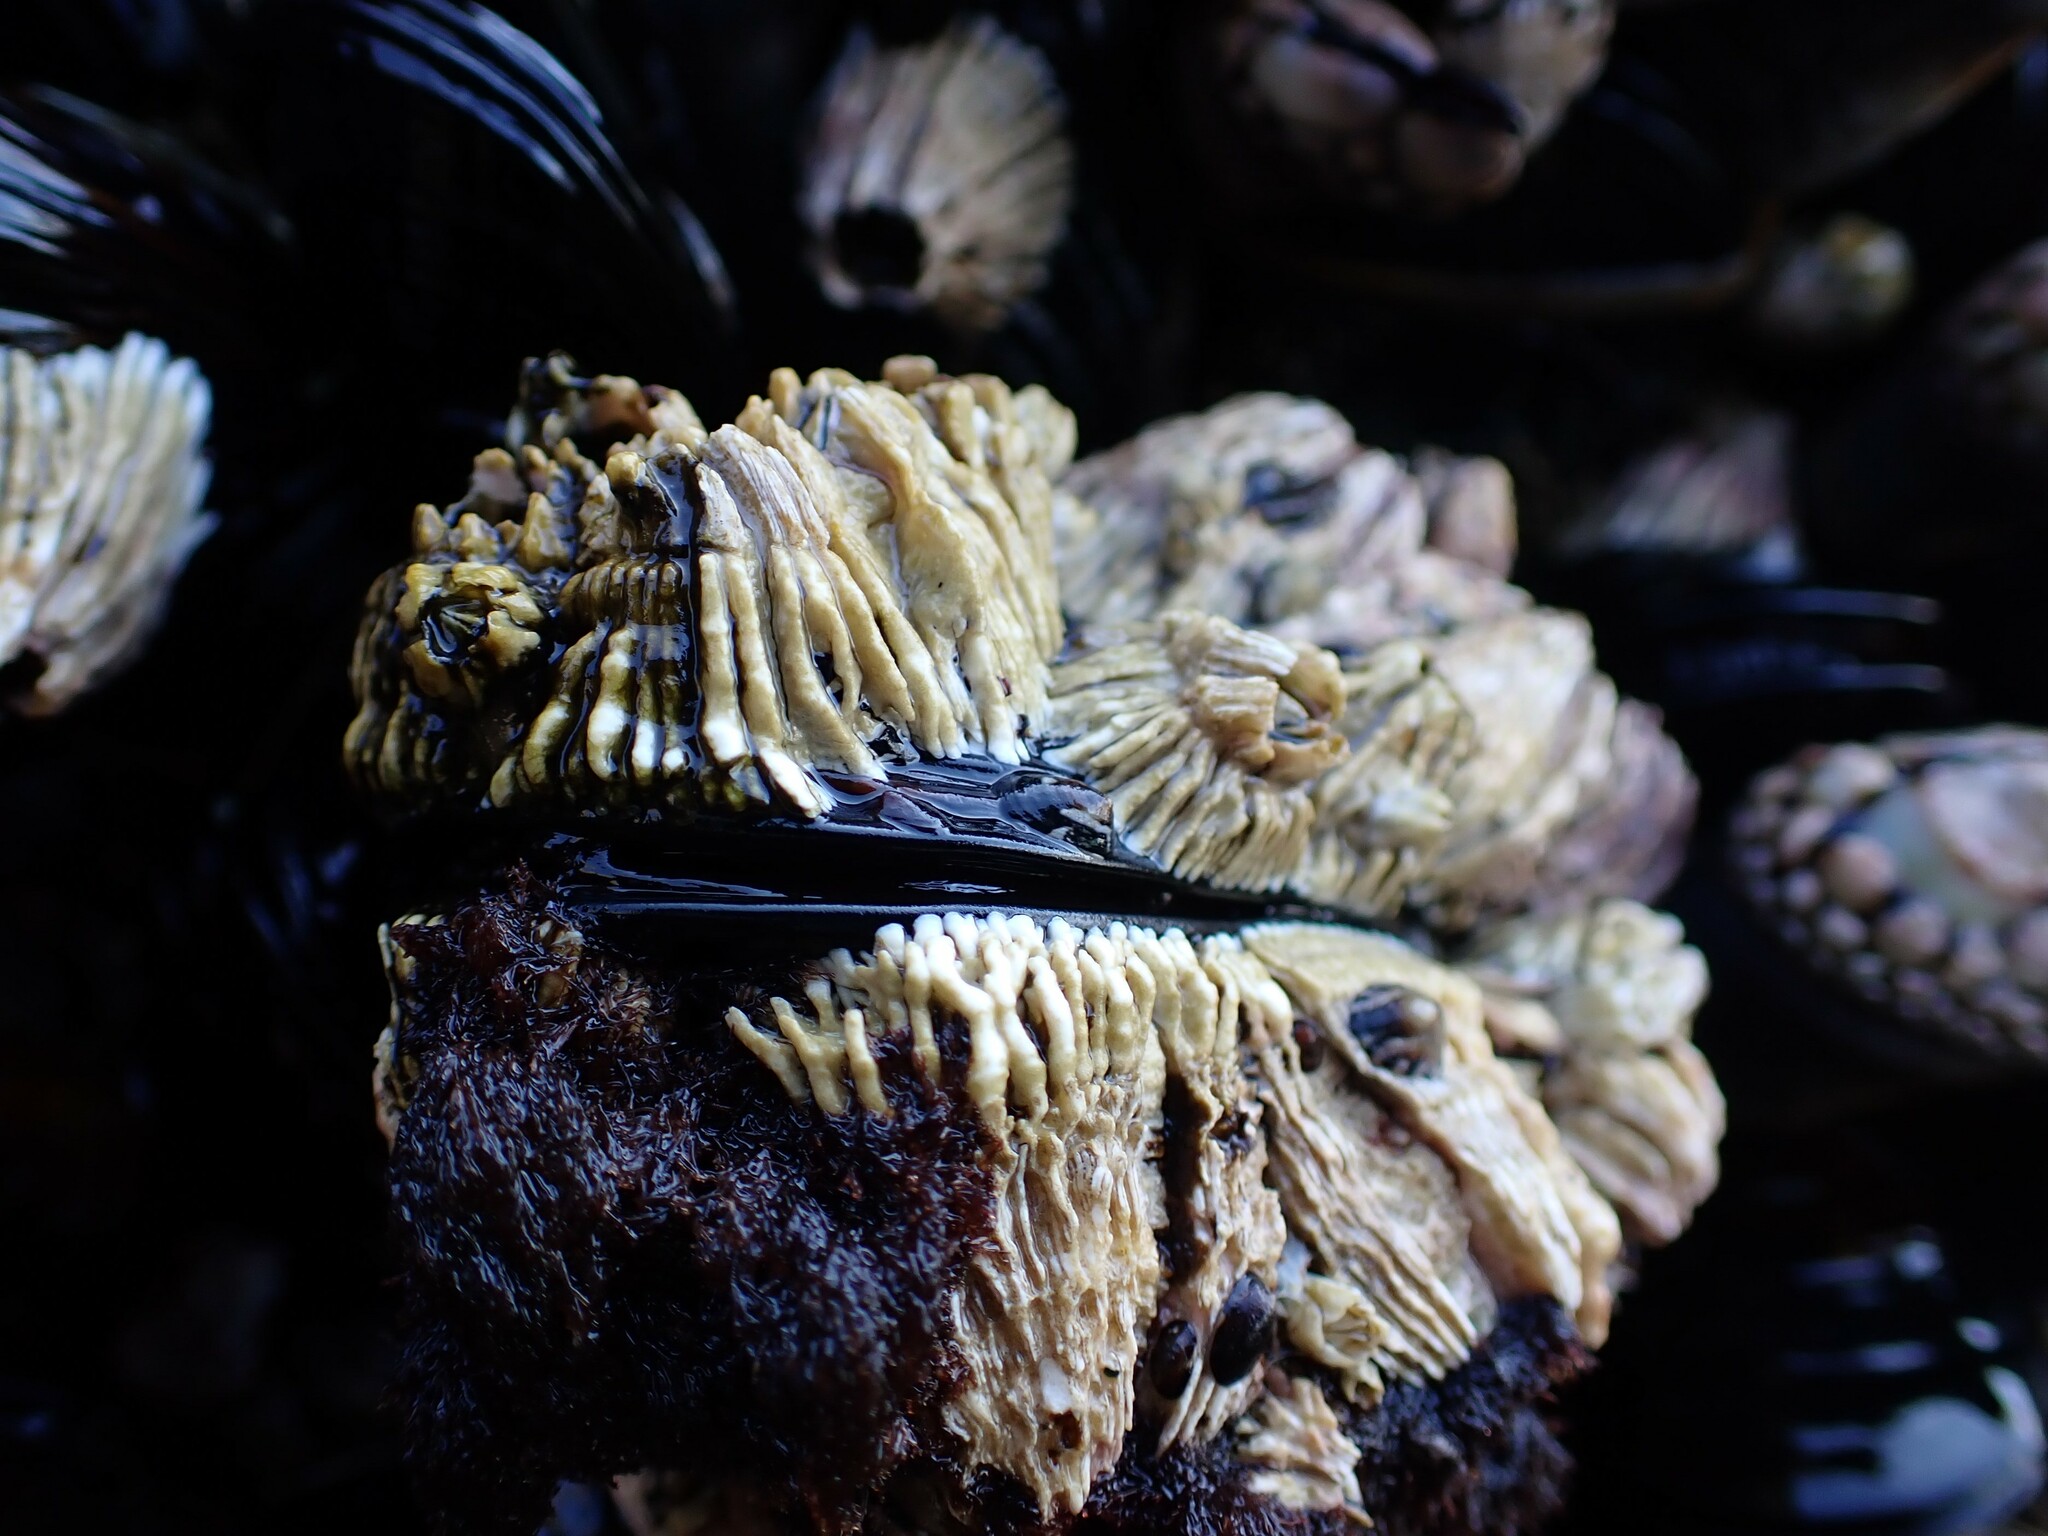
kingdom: Animalia
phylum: Arthropoda
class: Maxillopoda
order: Sessilia
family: Archaeobalanidae
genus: Semibalanus
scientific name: Semibalanus cariosus
